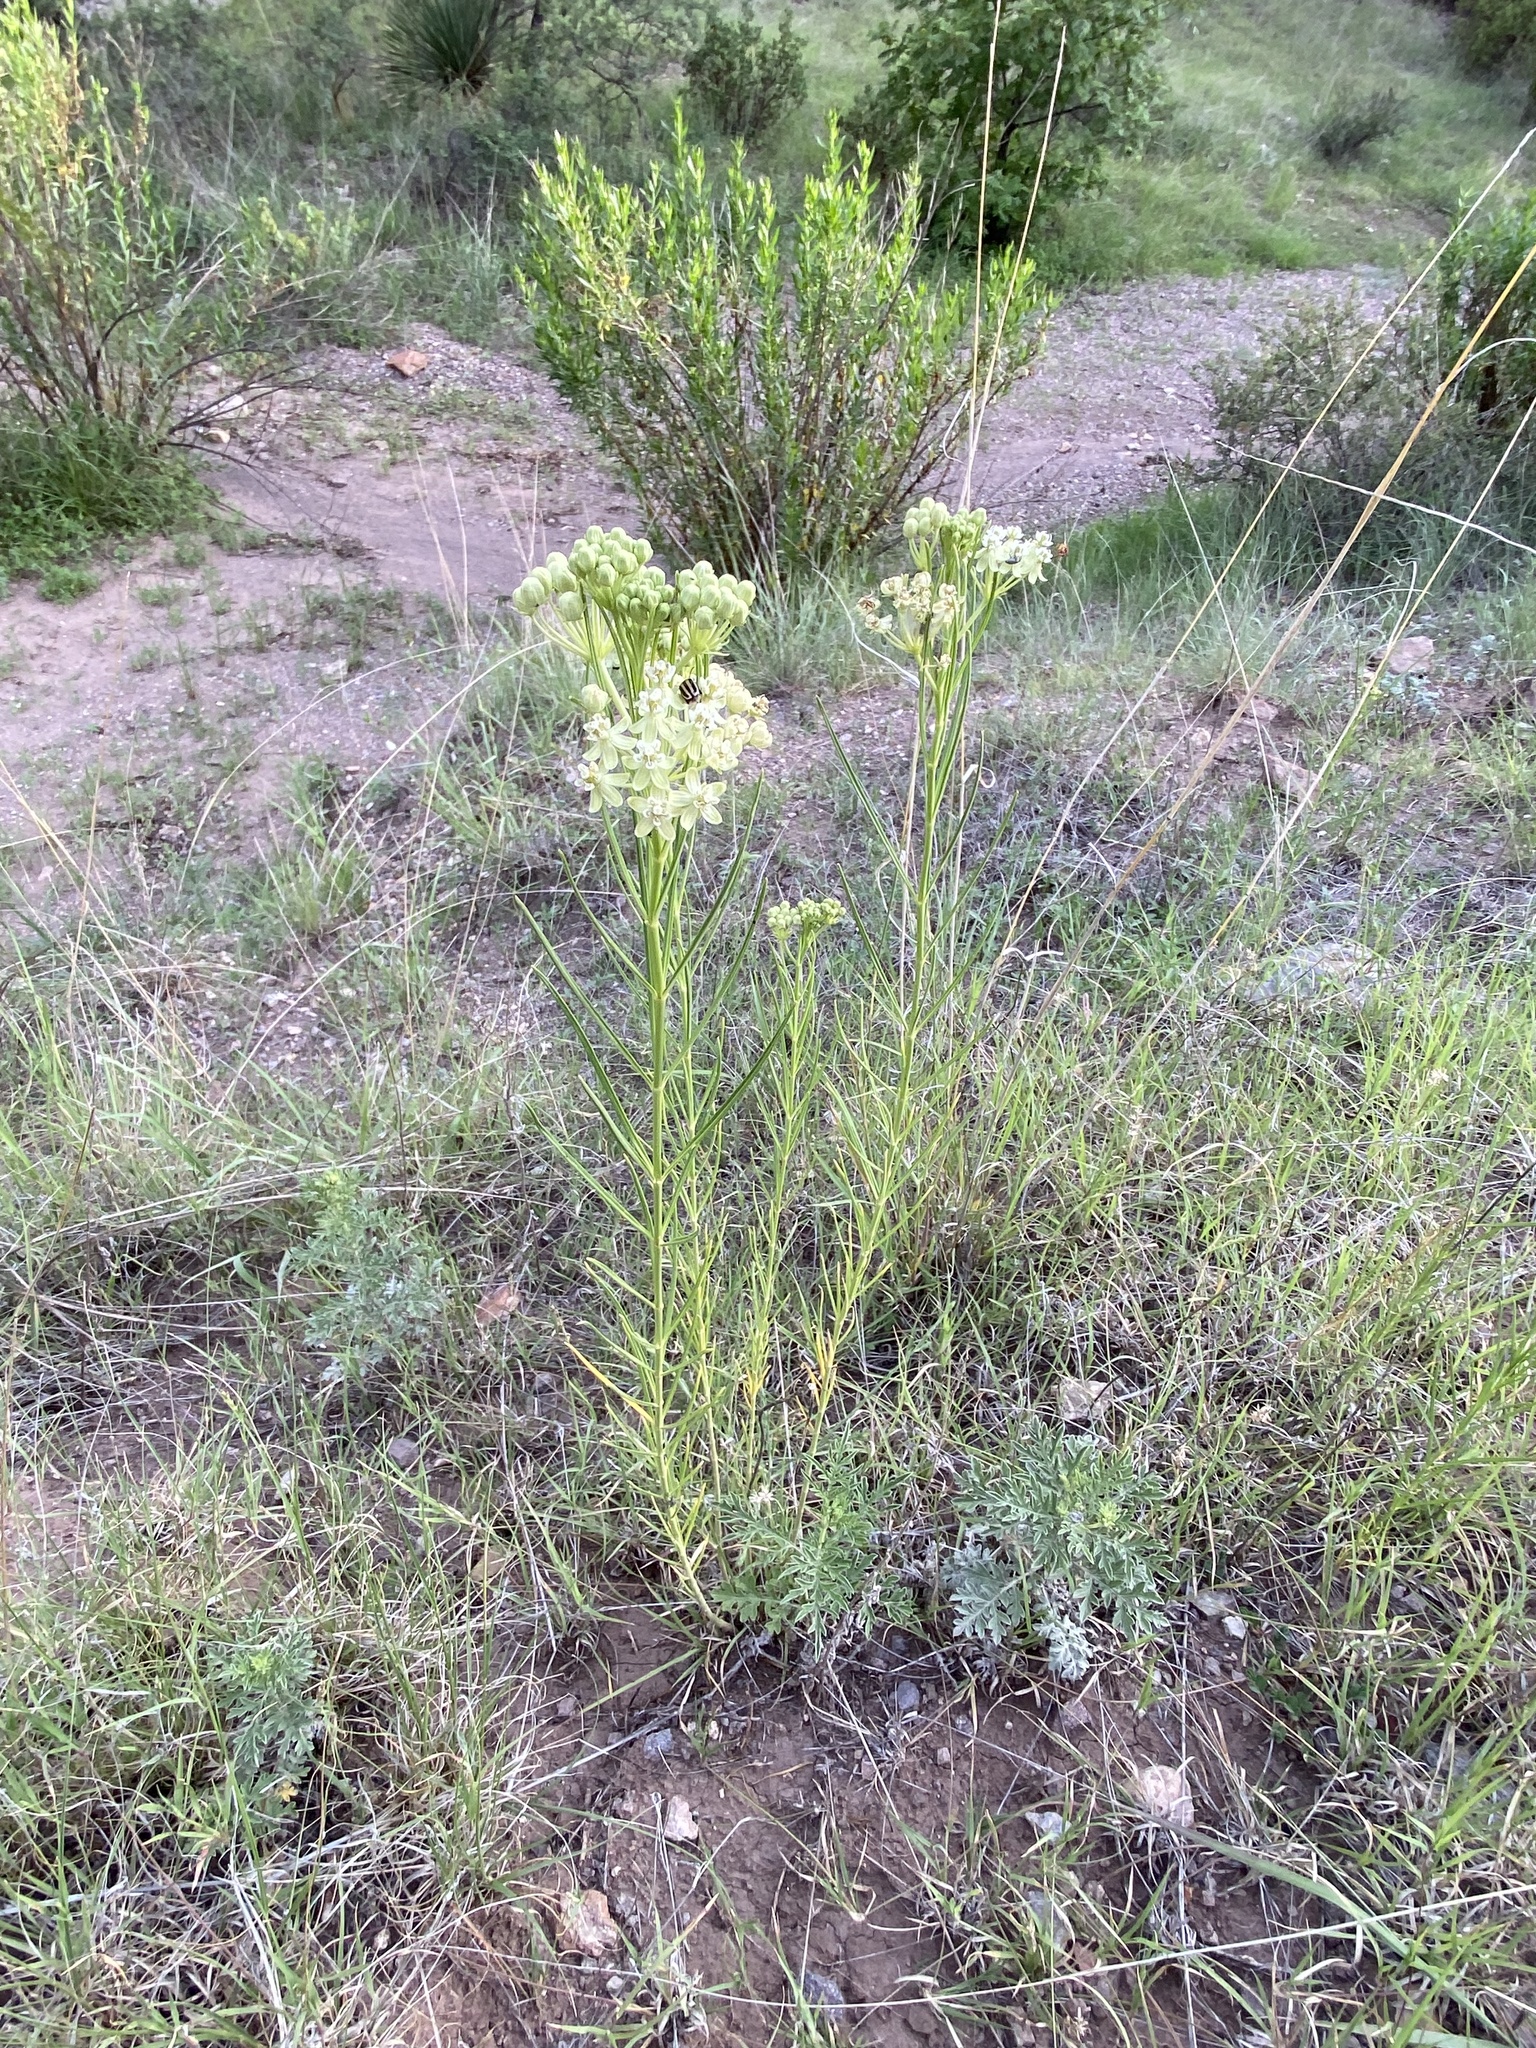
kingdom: Plantae
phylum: Tracheophyta
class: Magnoliopsida
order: Gentianales
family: Apocynaceae
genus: Asclepias
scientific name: Asclepias subverticillata
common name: Horsetail milkweed
